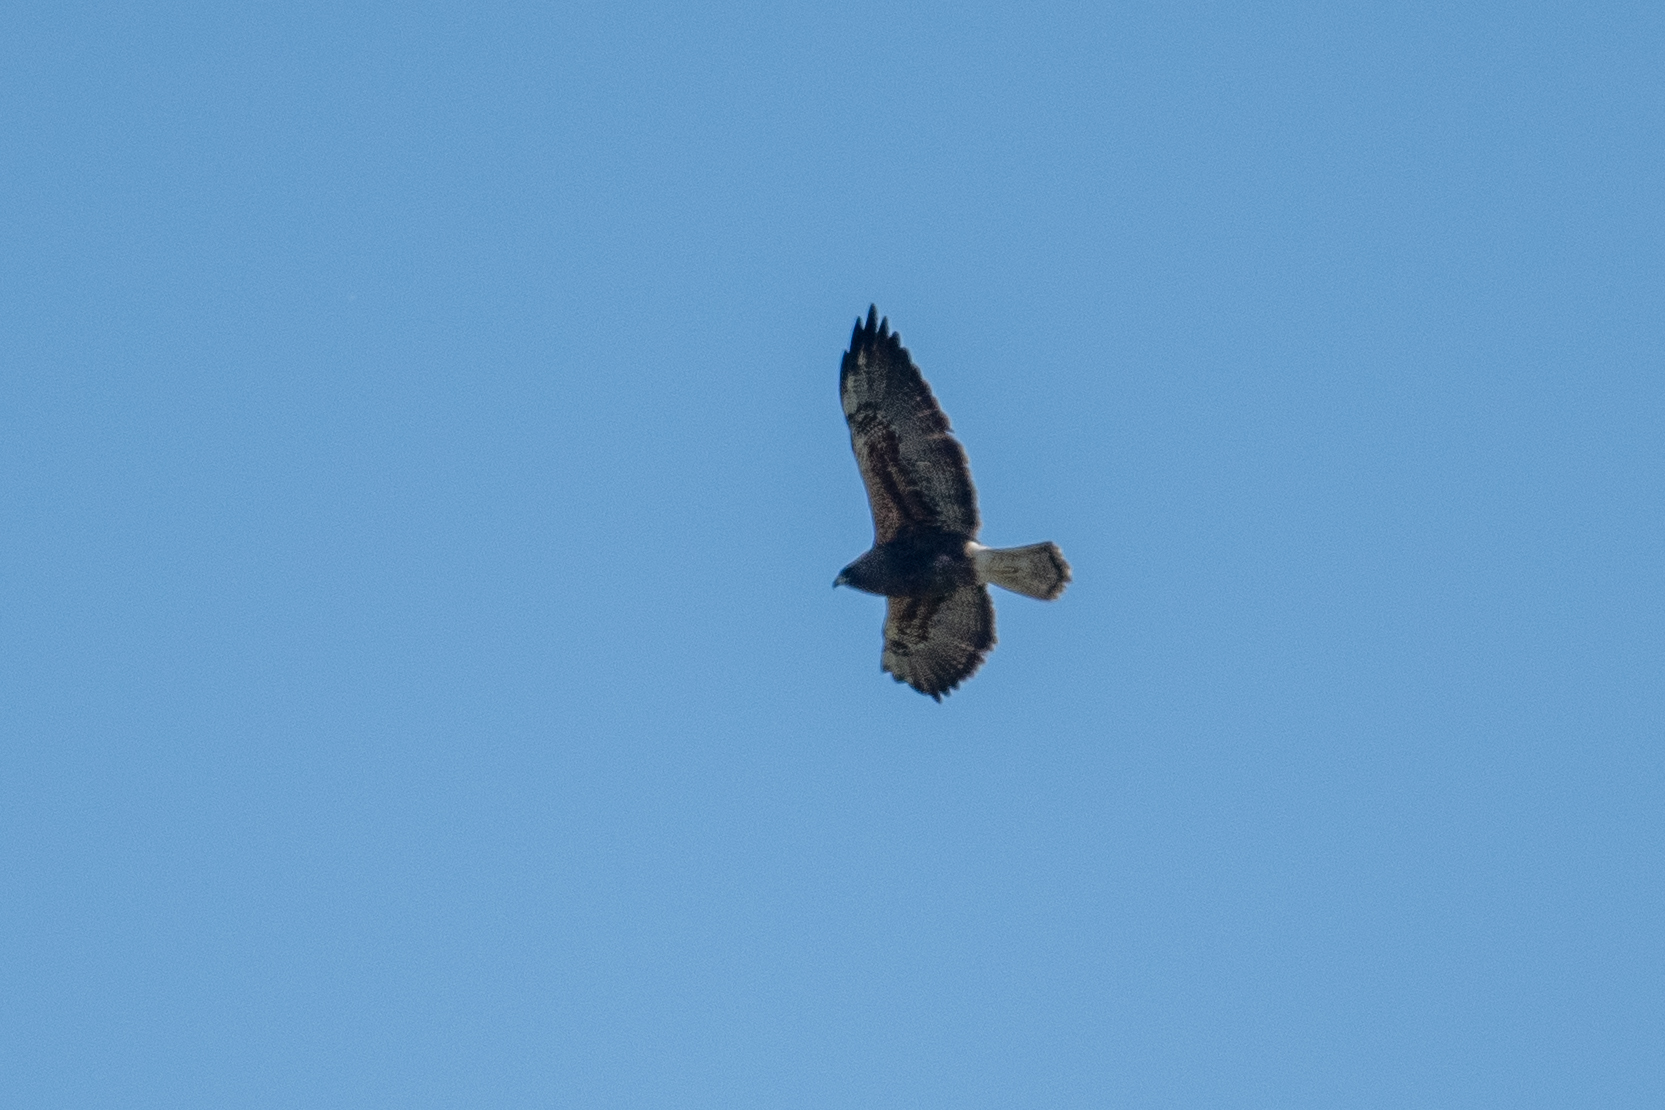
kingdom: Animalia
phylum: Chordata
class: Aves
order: Accipitriformes
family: Accipitridae
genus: Buteo
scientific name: Buteo swainsoni
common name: Swainson's hawk
